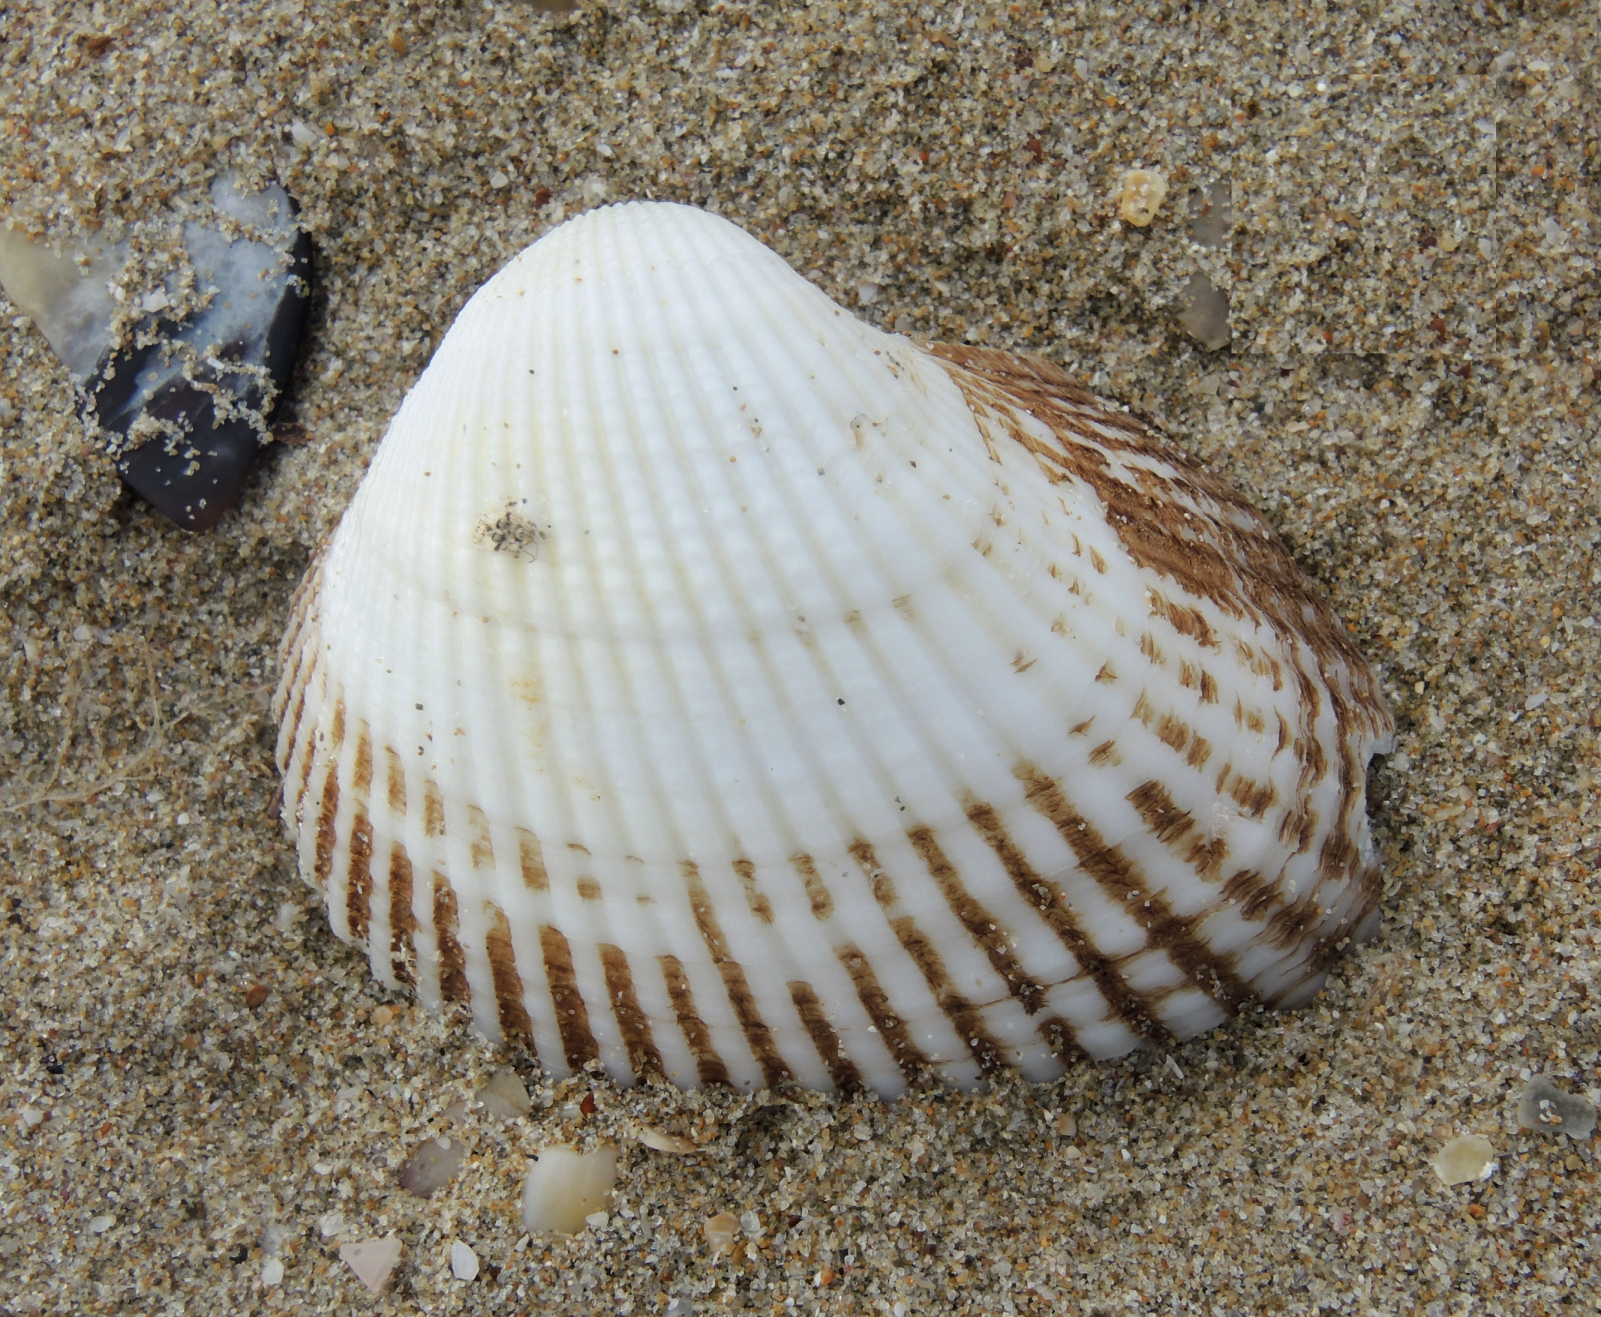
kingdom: Animalia
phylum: Mollusca
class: Bivalvia
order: Arcida
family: Arcidae
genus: Anadara
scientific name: Anadara kagoshimensis
